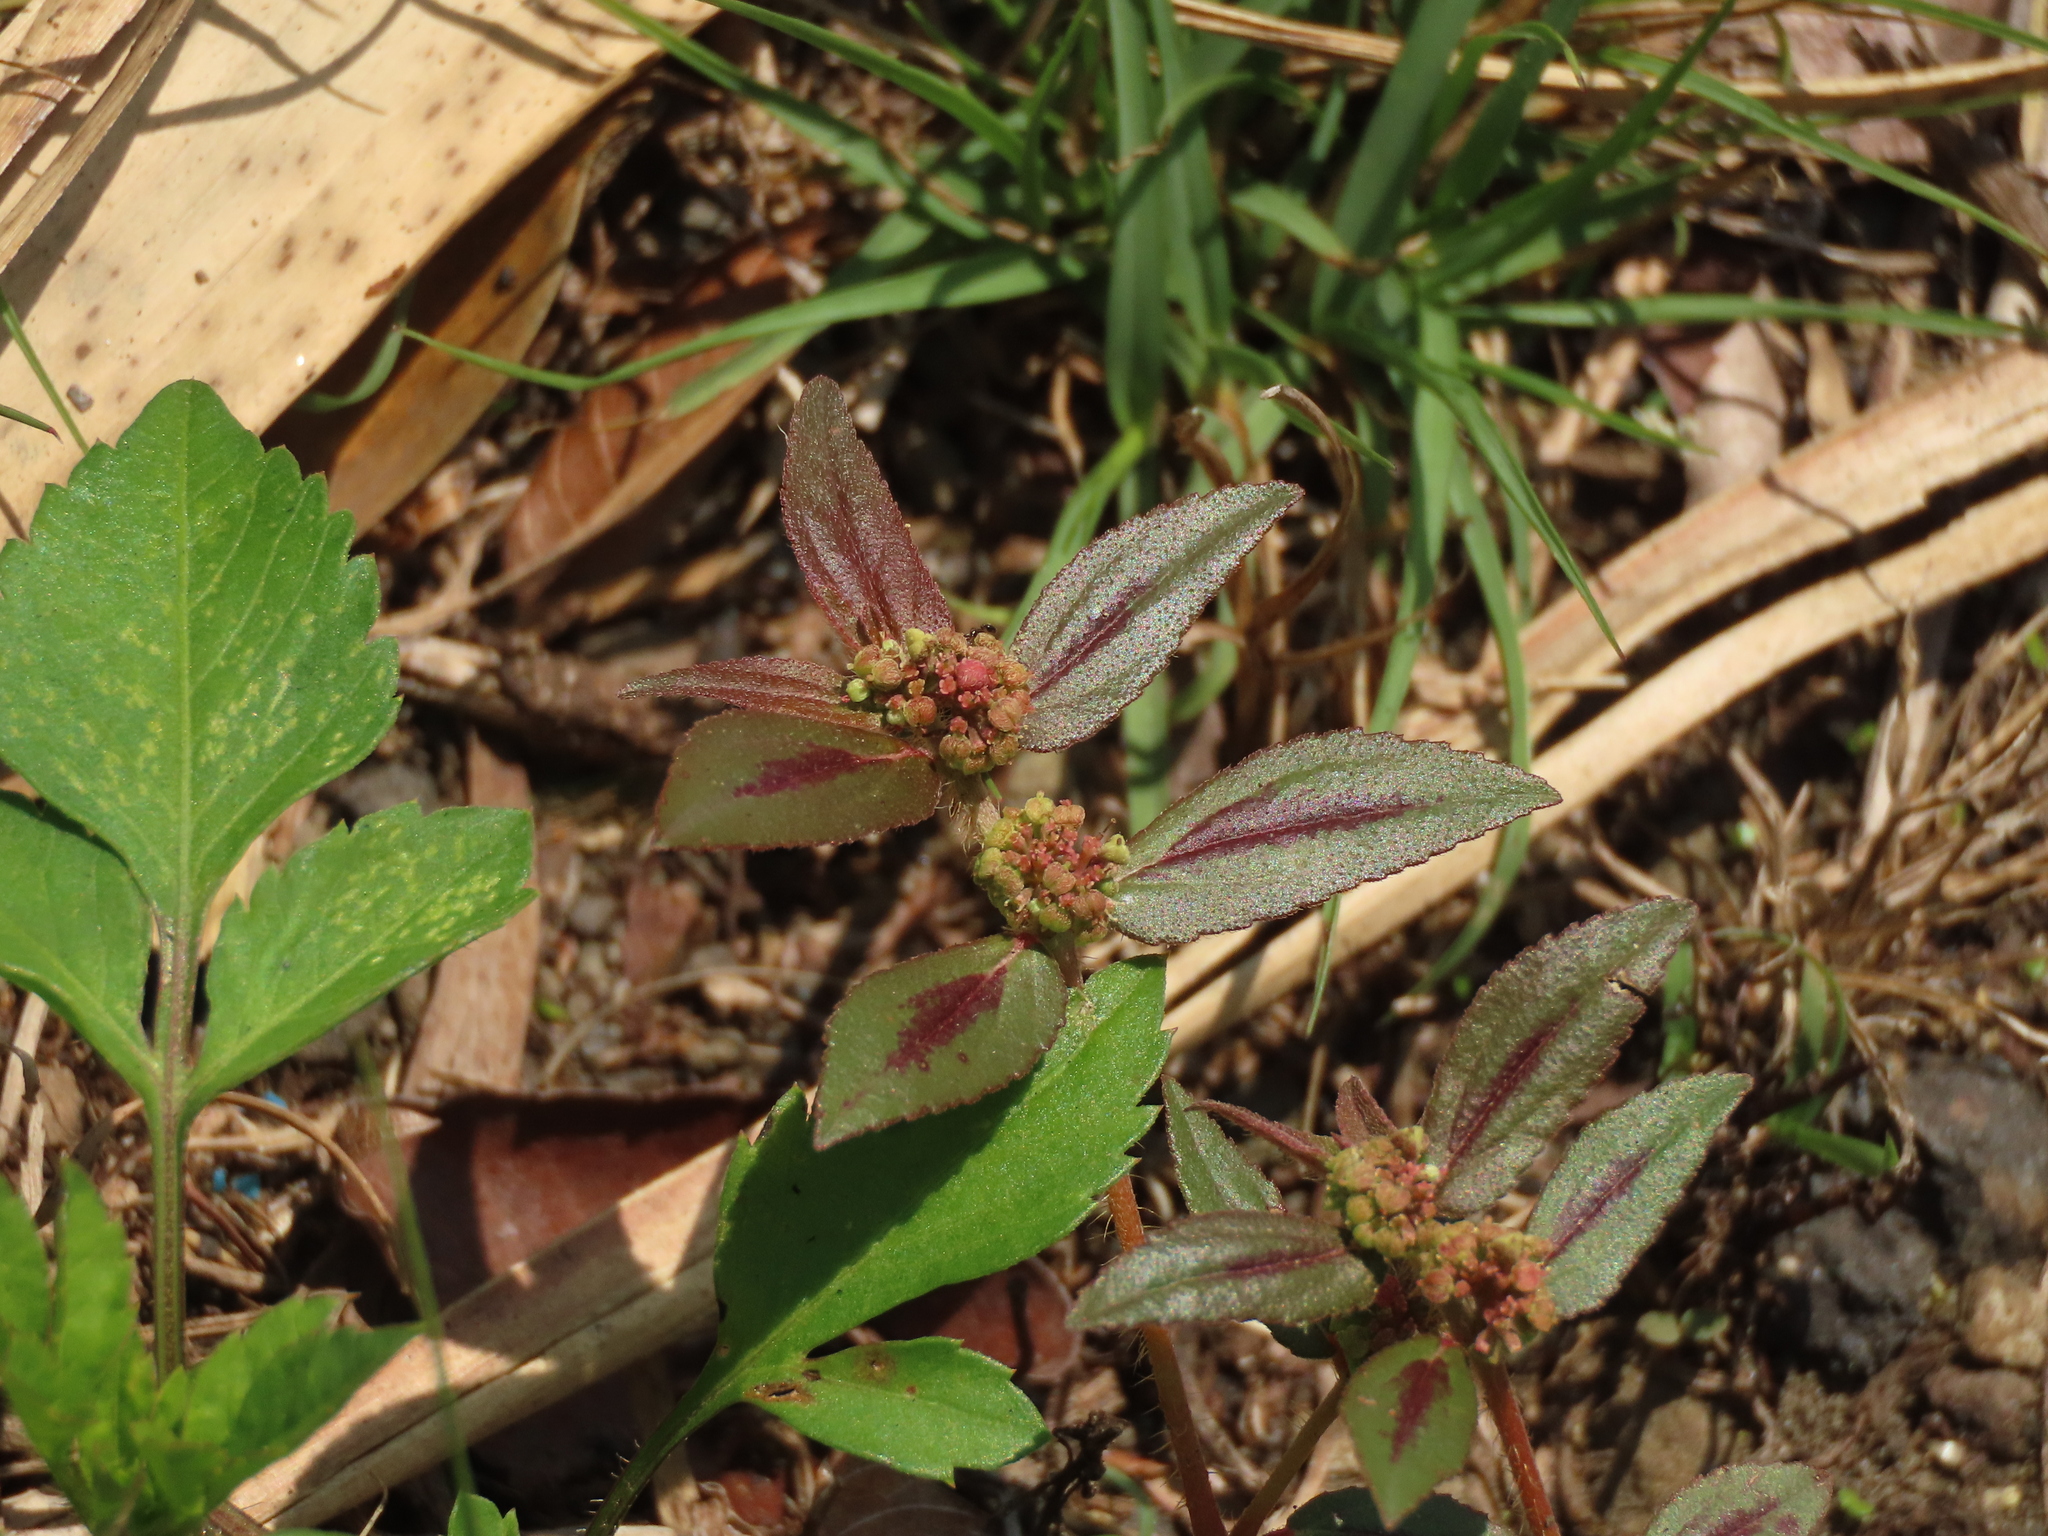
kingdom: Plantae
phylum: Tracheophyta
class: Magnoliopsida
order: Malpighiales
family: Euphorbiaceae
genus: Euphorbia
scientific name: Euphorbia hirta
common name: Pillpod sandmat
